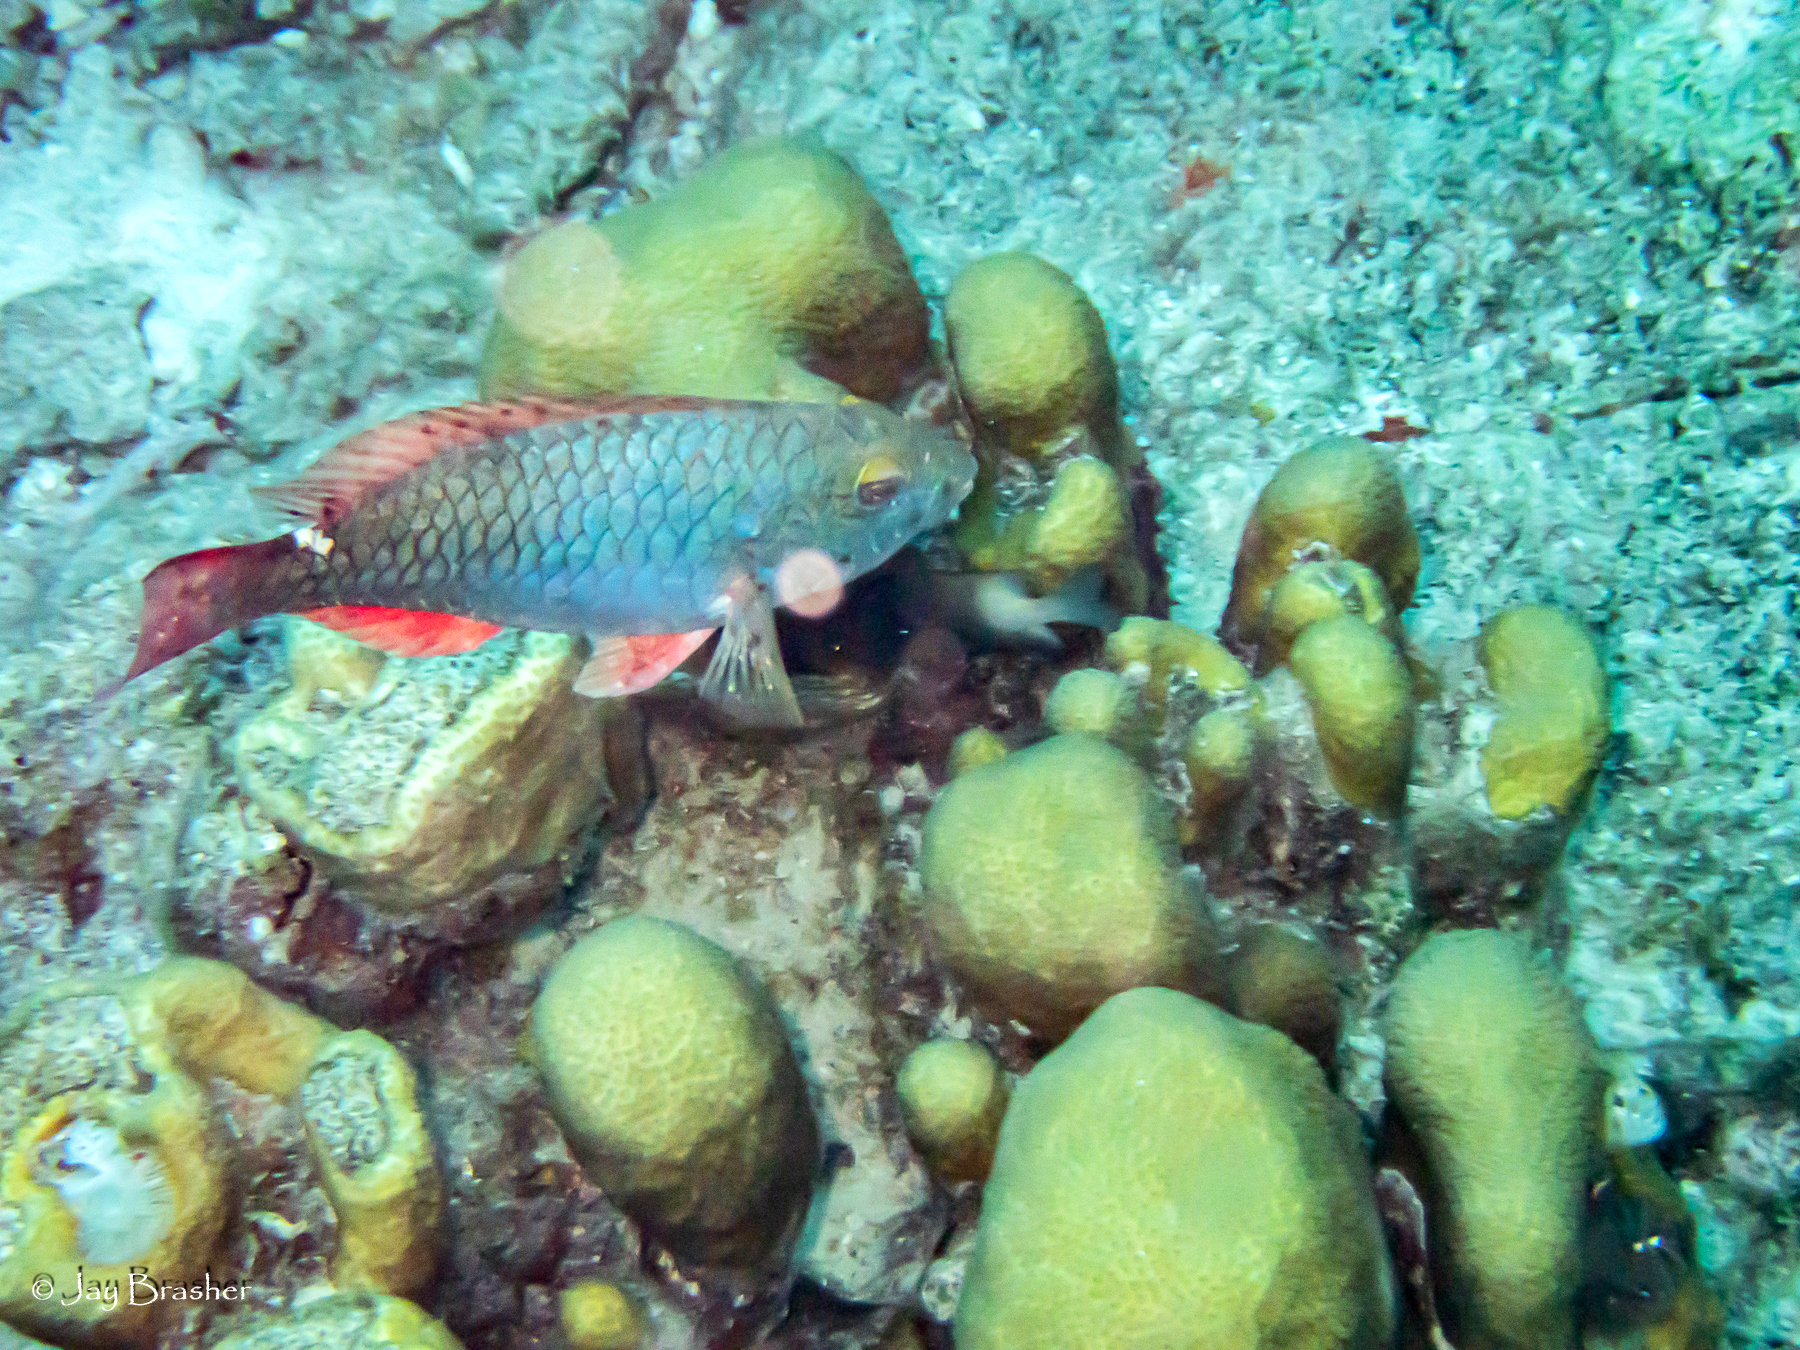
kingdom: Animalia
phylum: Chordata
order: Perciformes
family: Scaridae
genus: Sparisoma
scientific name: Sparisoma aurofrenatum
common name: Redband parrotfish
